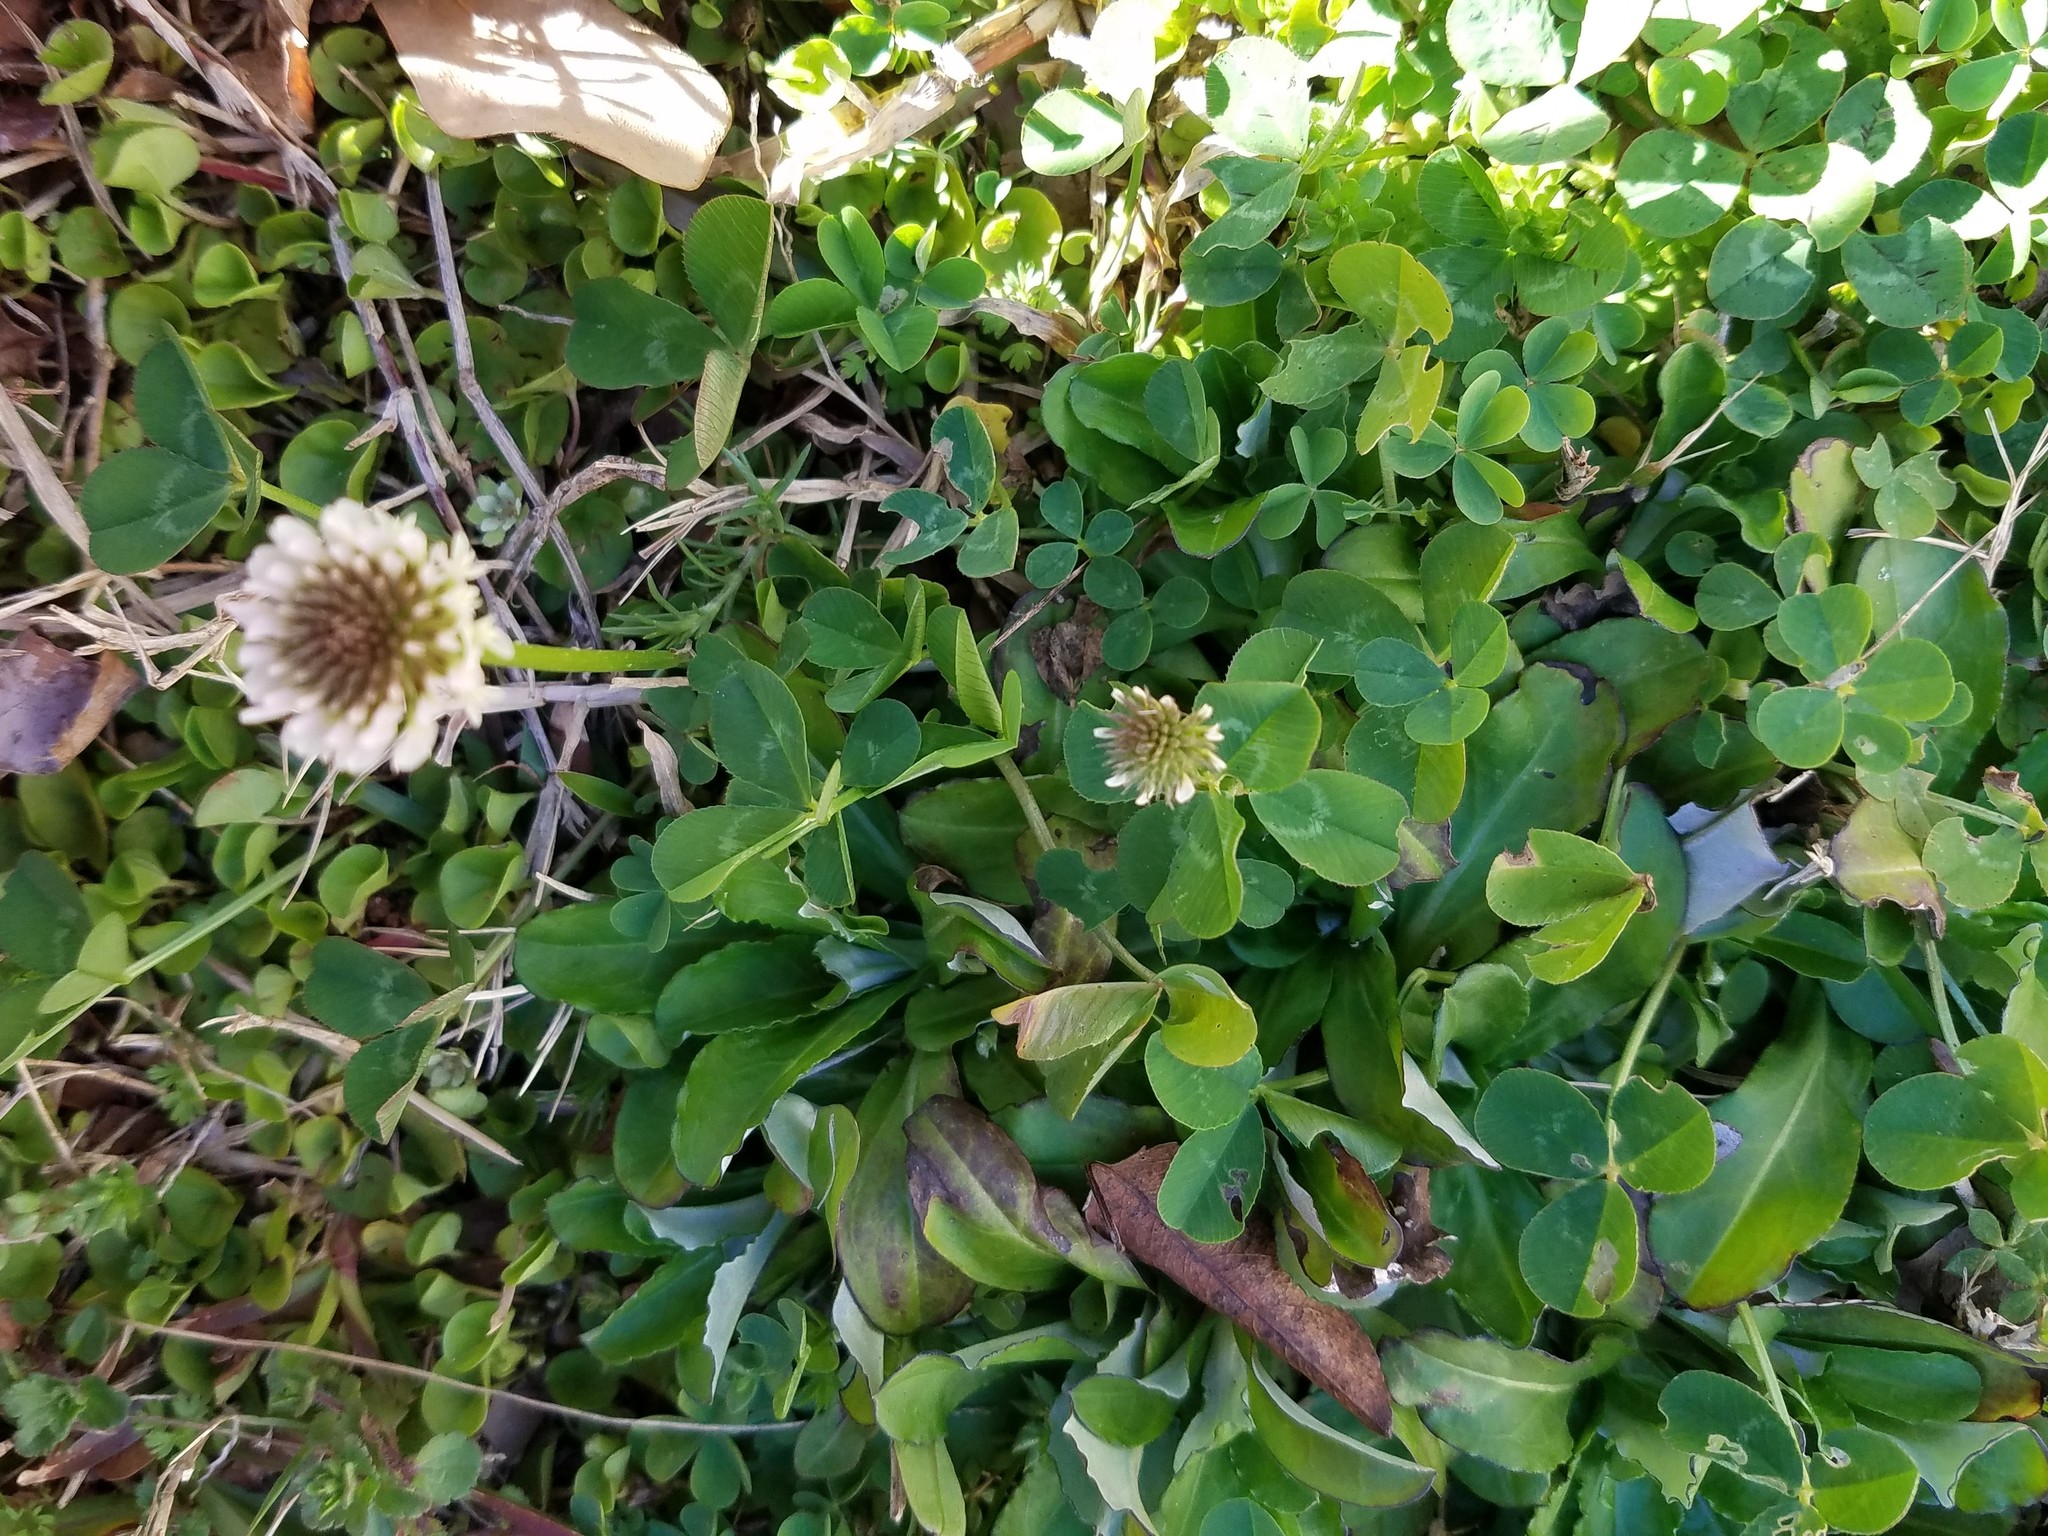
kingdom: Plantae
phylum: Tracheophyta
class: Magnoliopsida
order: Fabales
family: Fabaceae
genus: Trifolium
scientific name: Trifolium repens
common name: White clover
